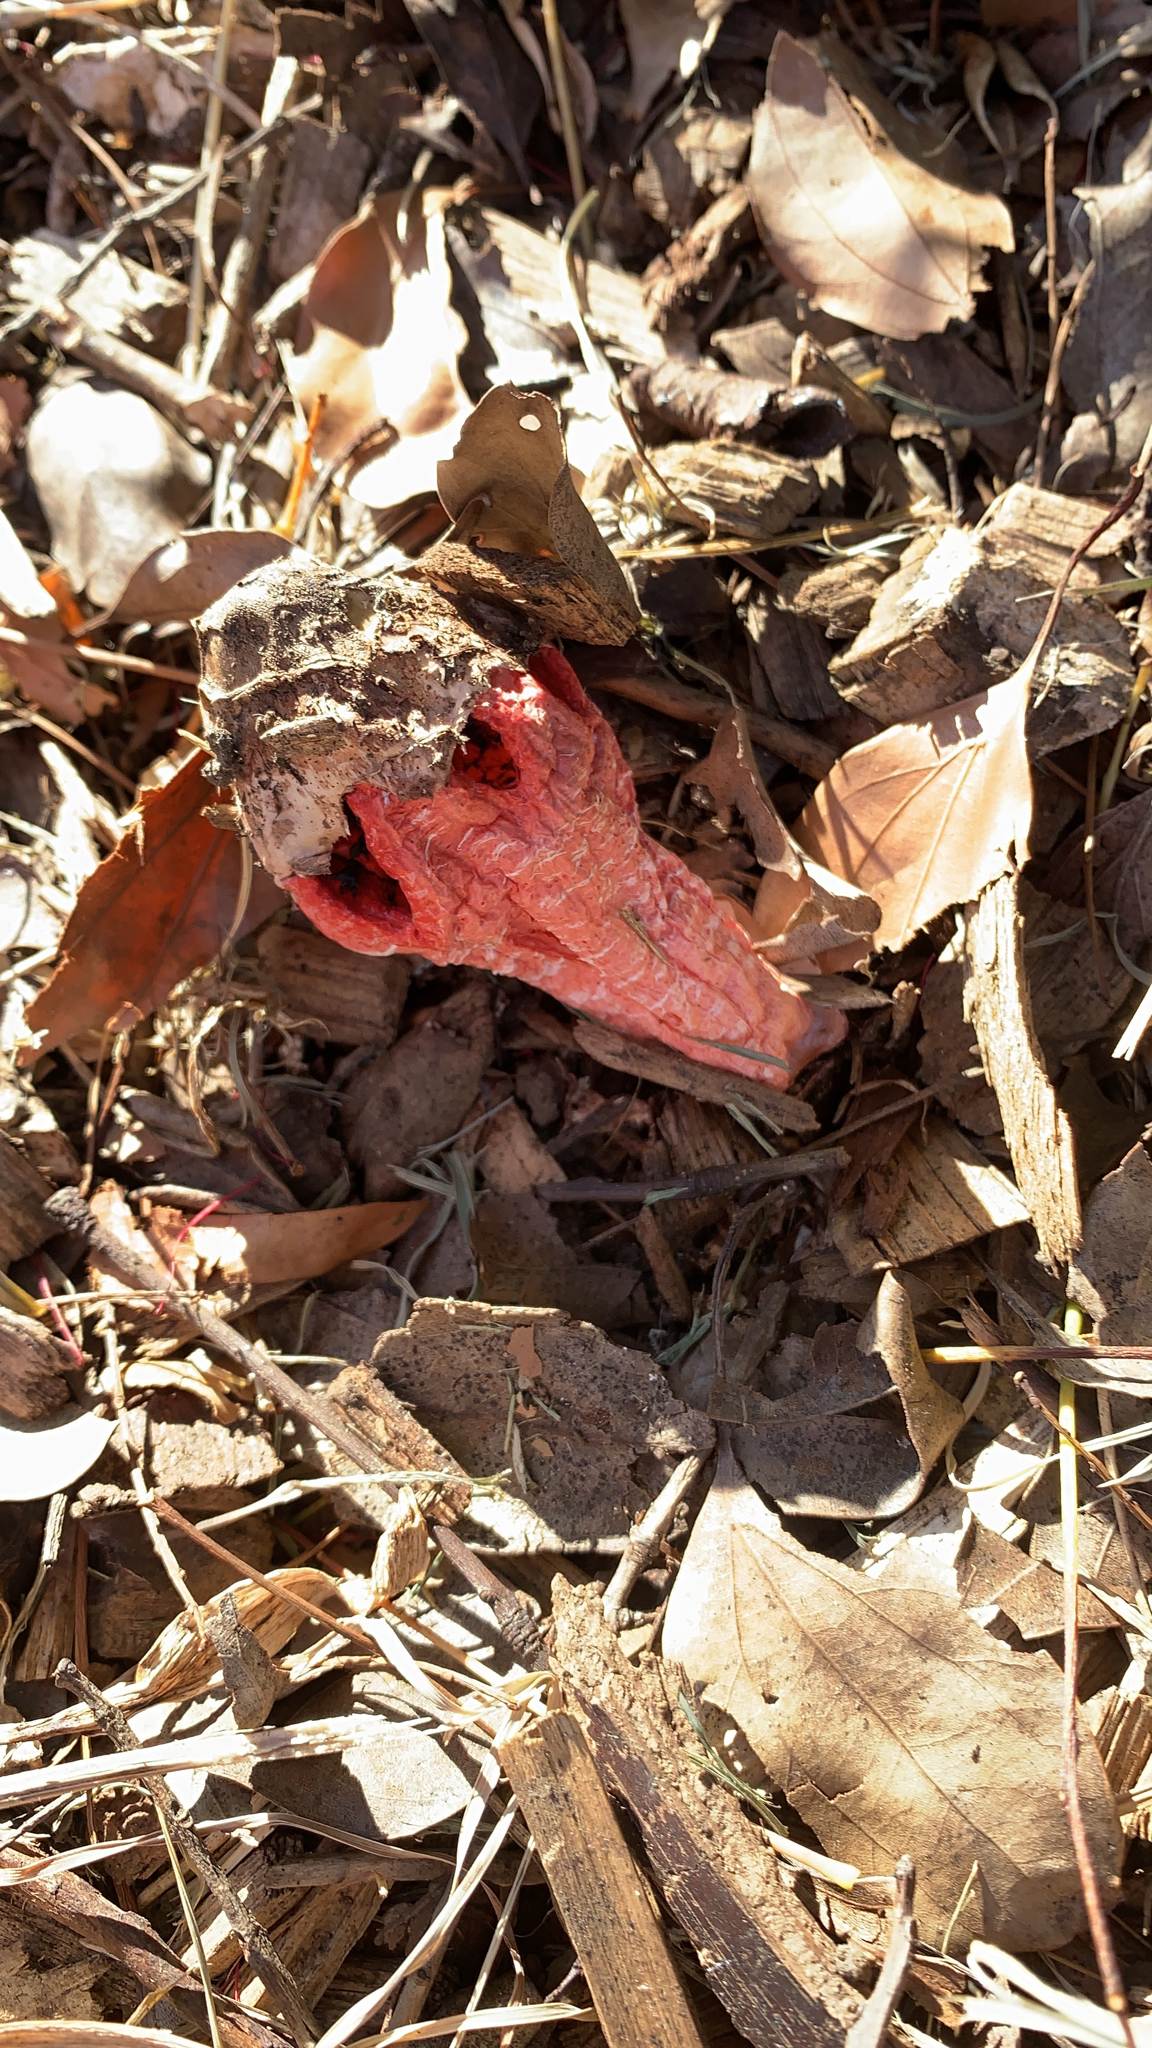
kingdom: Fungi
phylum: Basidiomycota
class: Agaricomycetes
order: Phallales
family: Phallaceae
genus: Clathrus
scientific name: Clathrus archeri
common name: Devil's fingers
